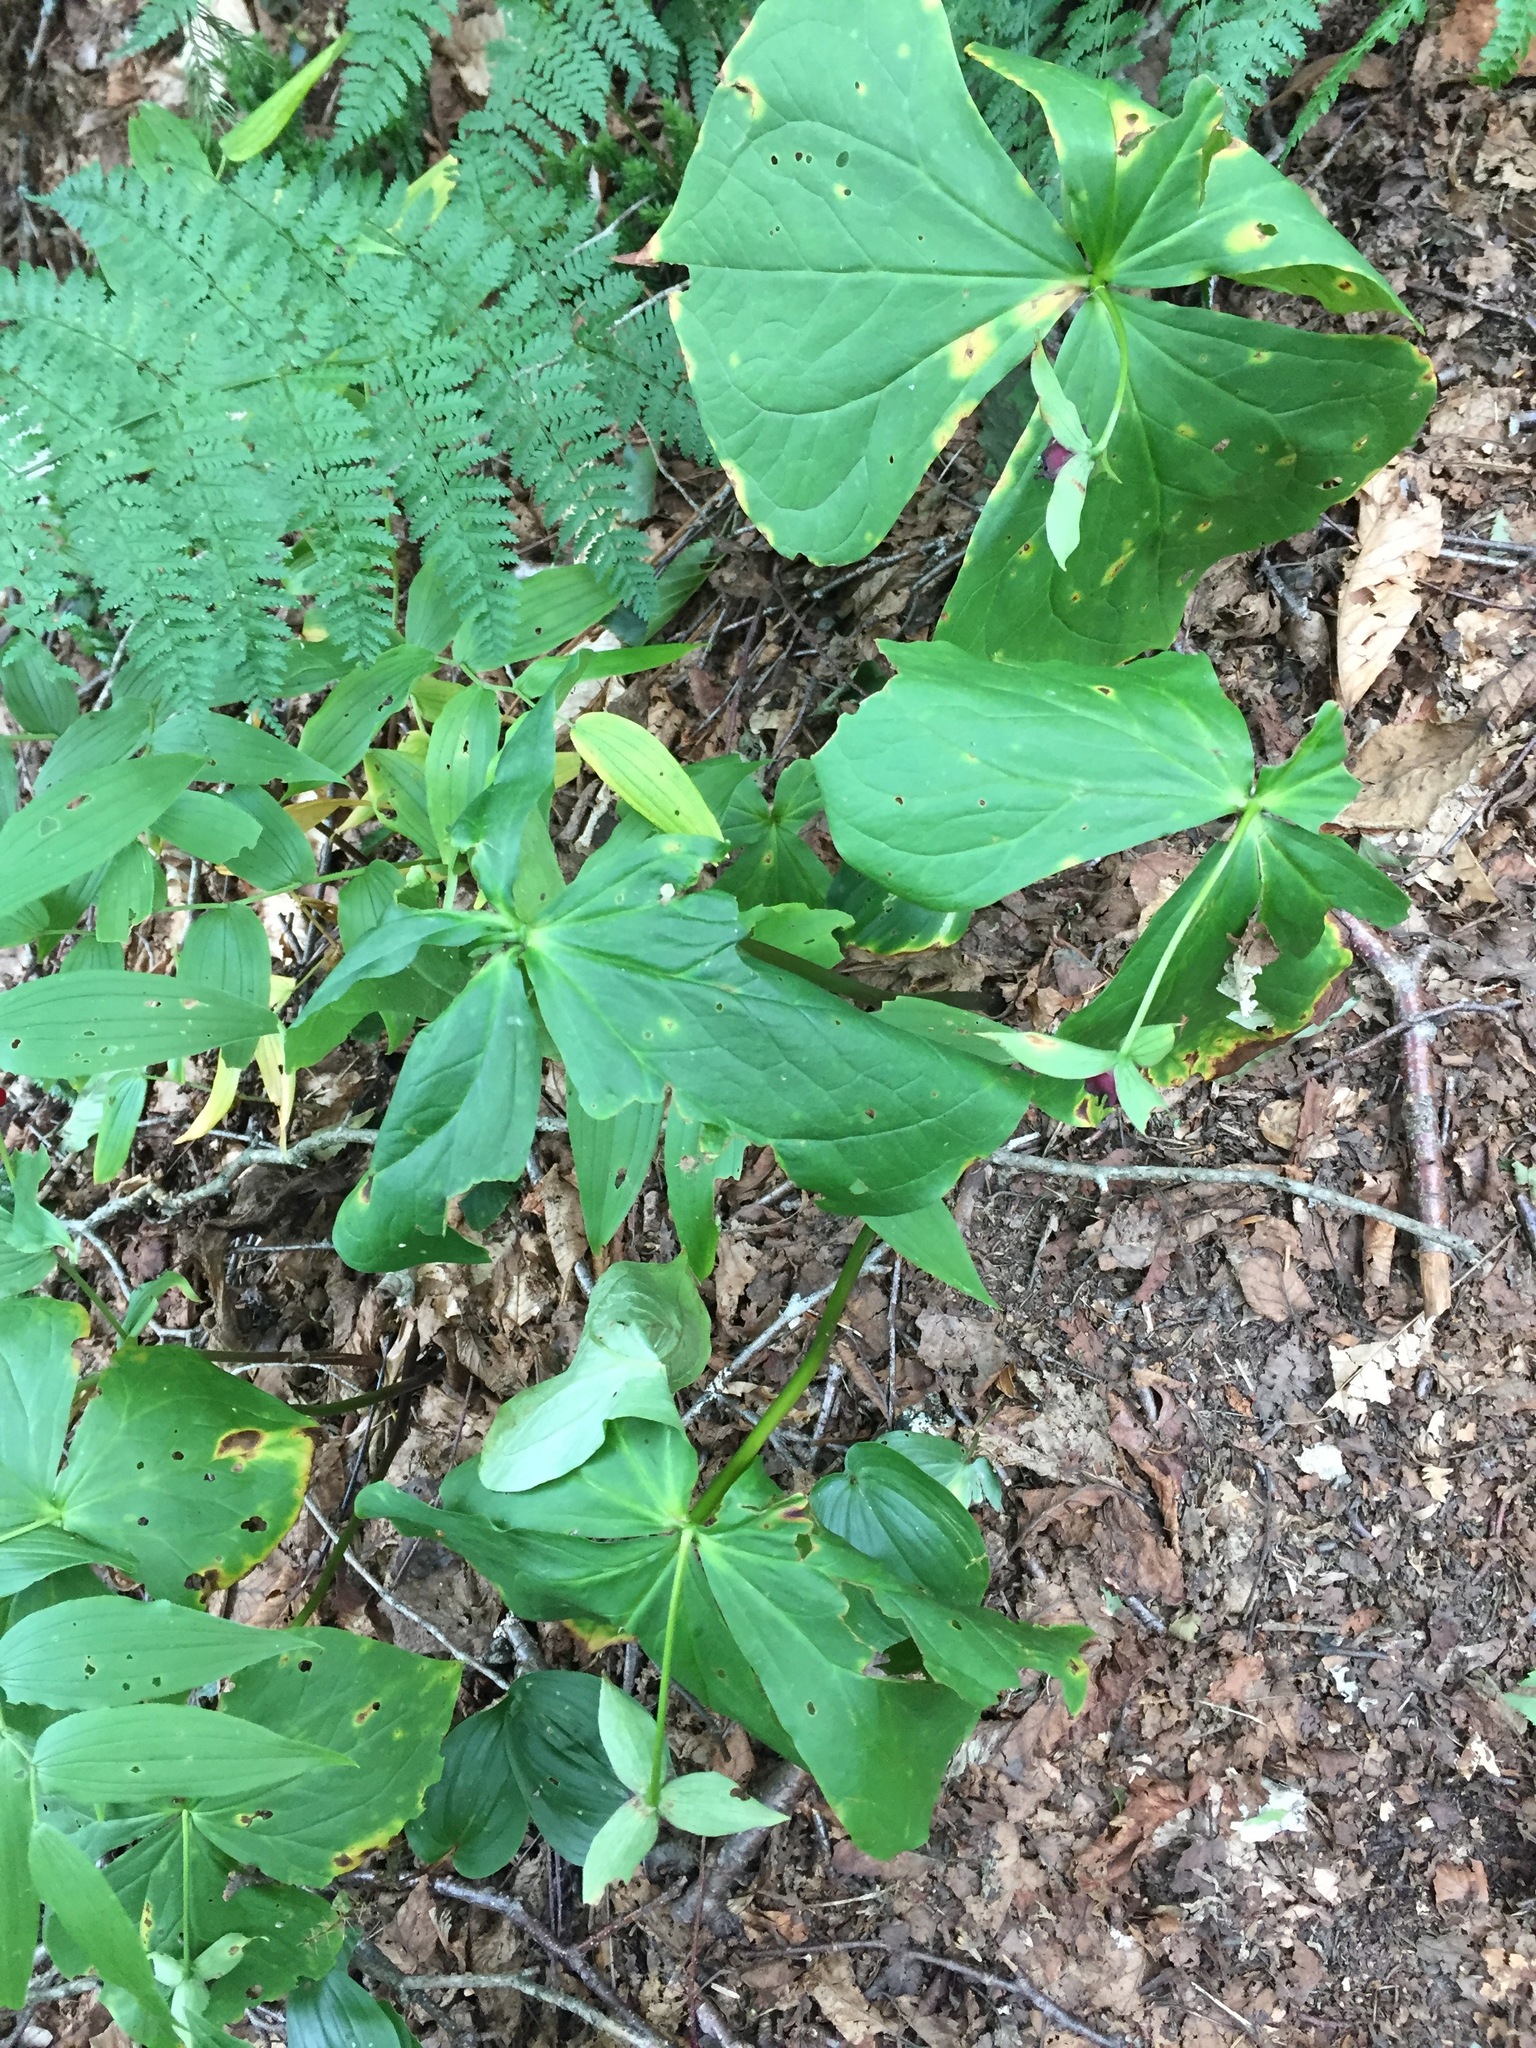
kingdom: Plantae
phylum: Tracheophyta
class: Liliopsida
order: Liliales
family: Melanthiaceae
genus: Trillium
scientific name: Trillium erectum
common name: Purple trillium
